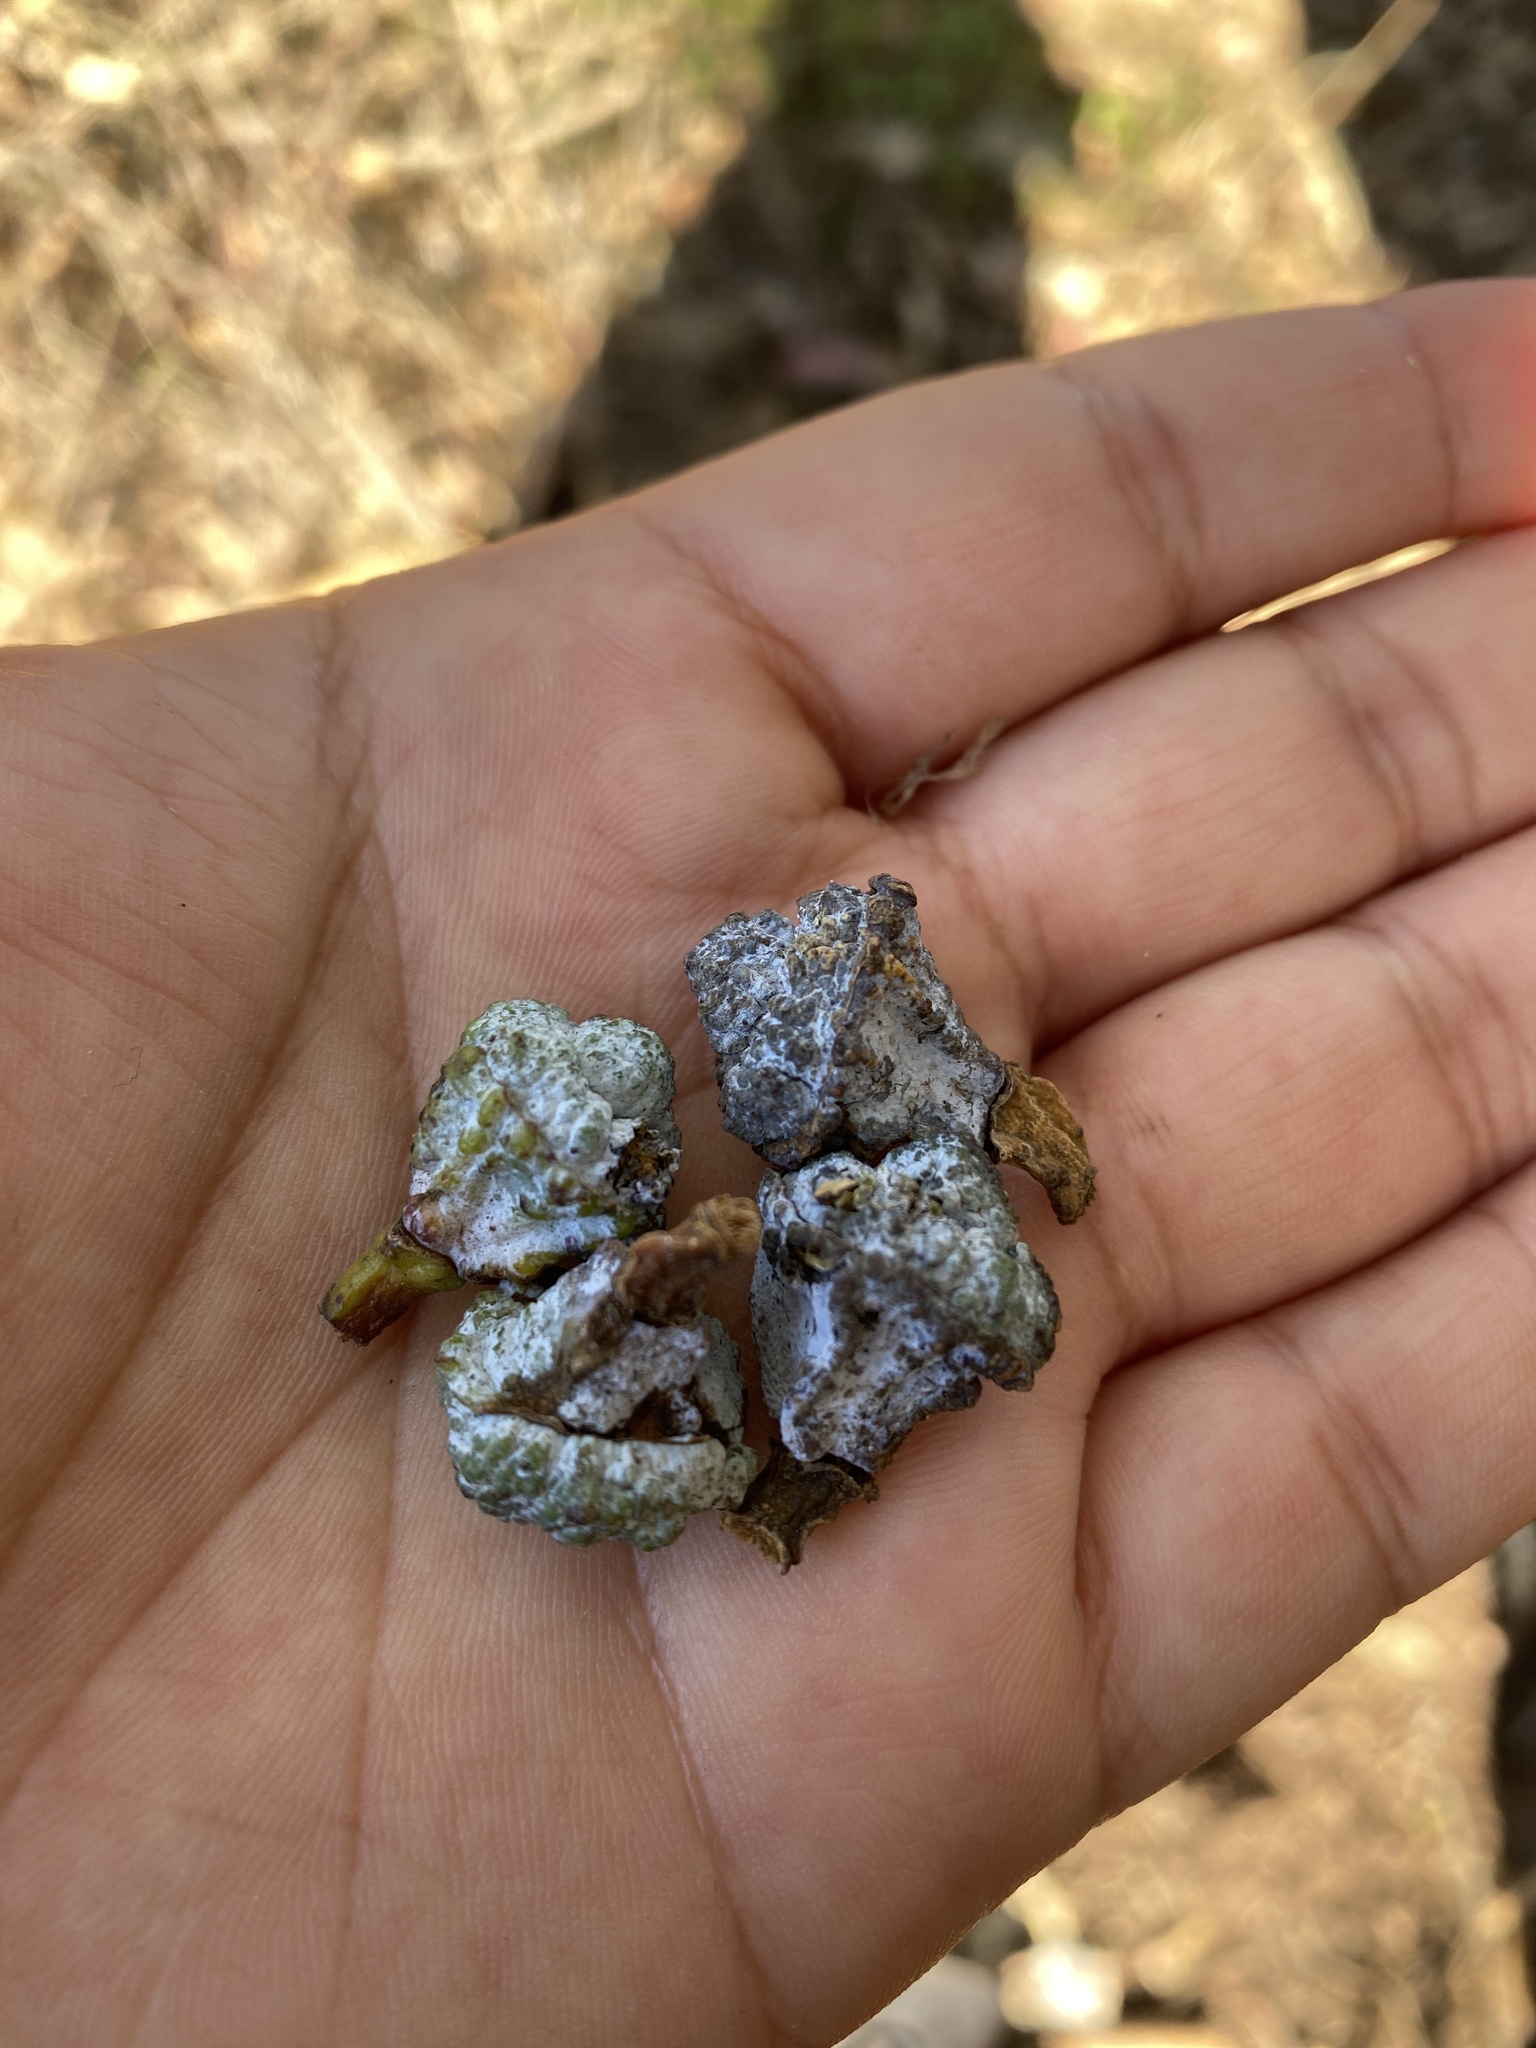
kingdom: Plantae
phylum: Tracheophyta
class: Magnoliopsida
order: Myrtales
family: Myrtaceae
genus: Eucalyptus
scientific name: Eucalyptus globulus
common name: Southern blue-gum
